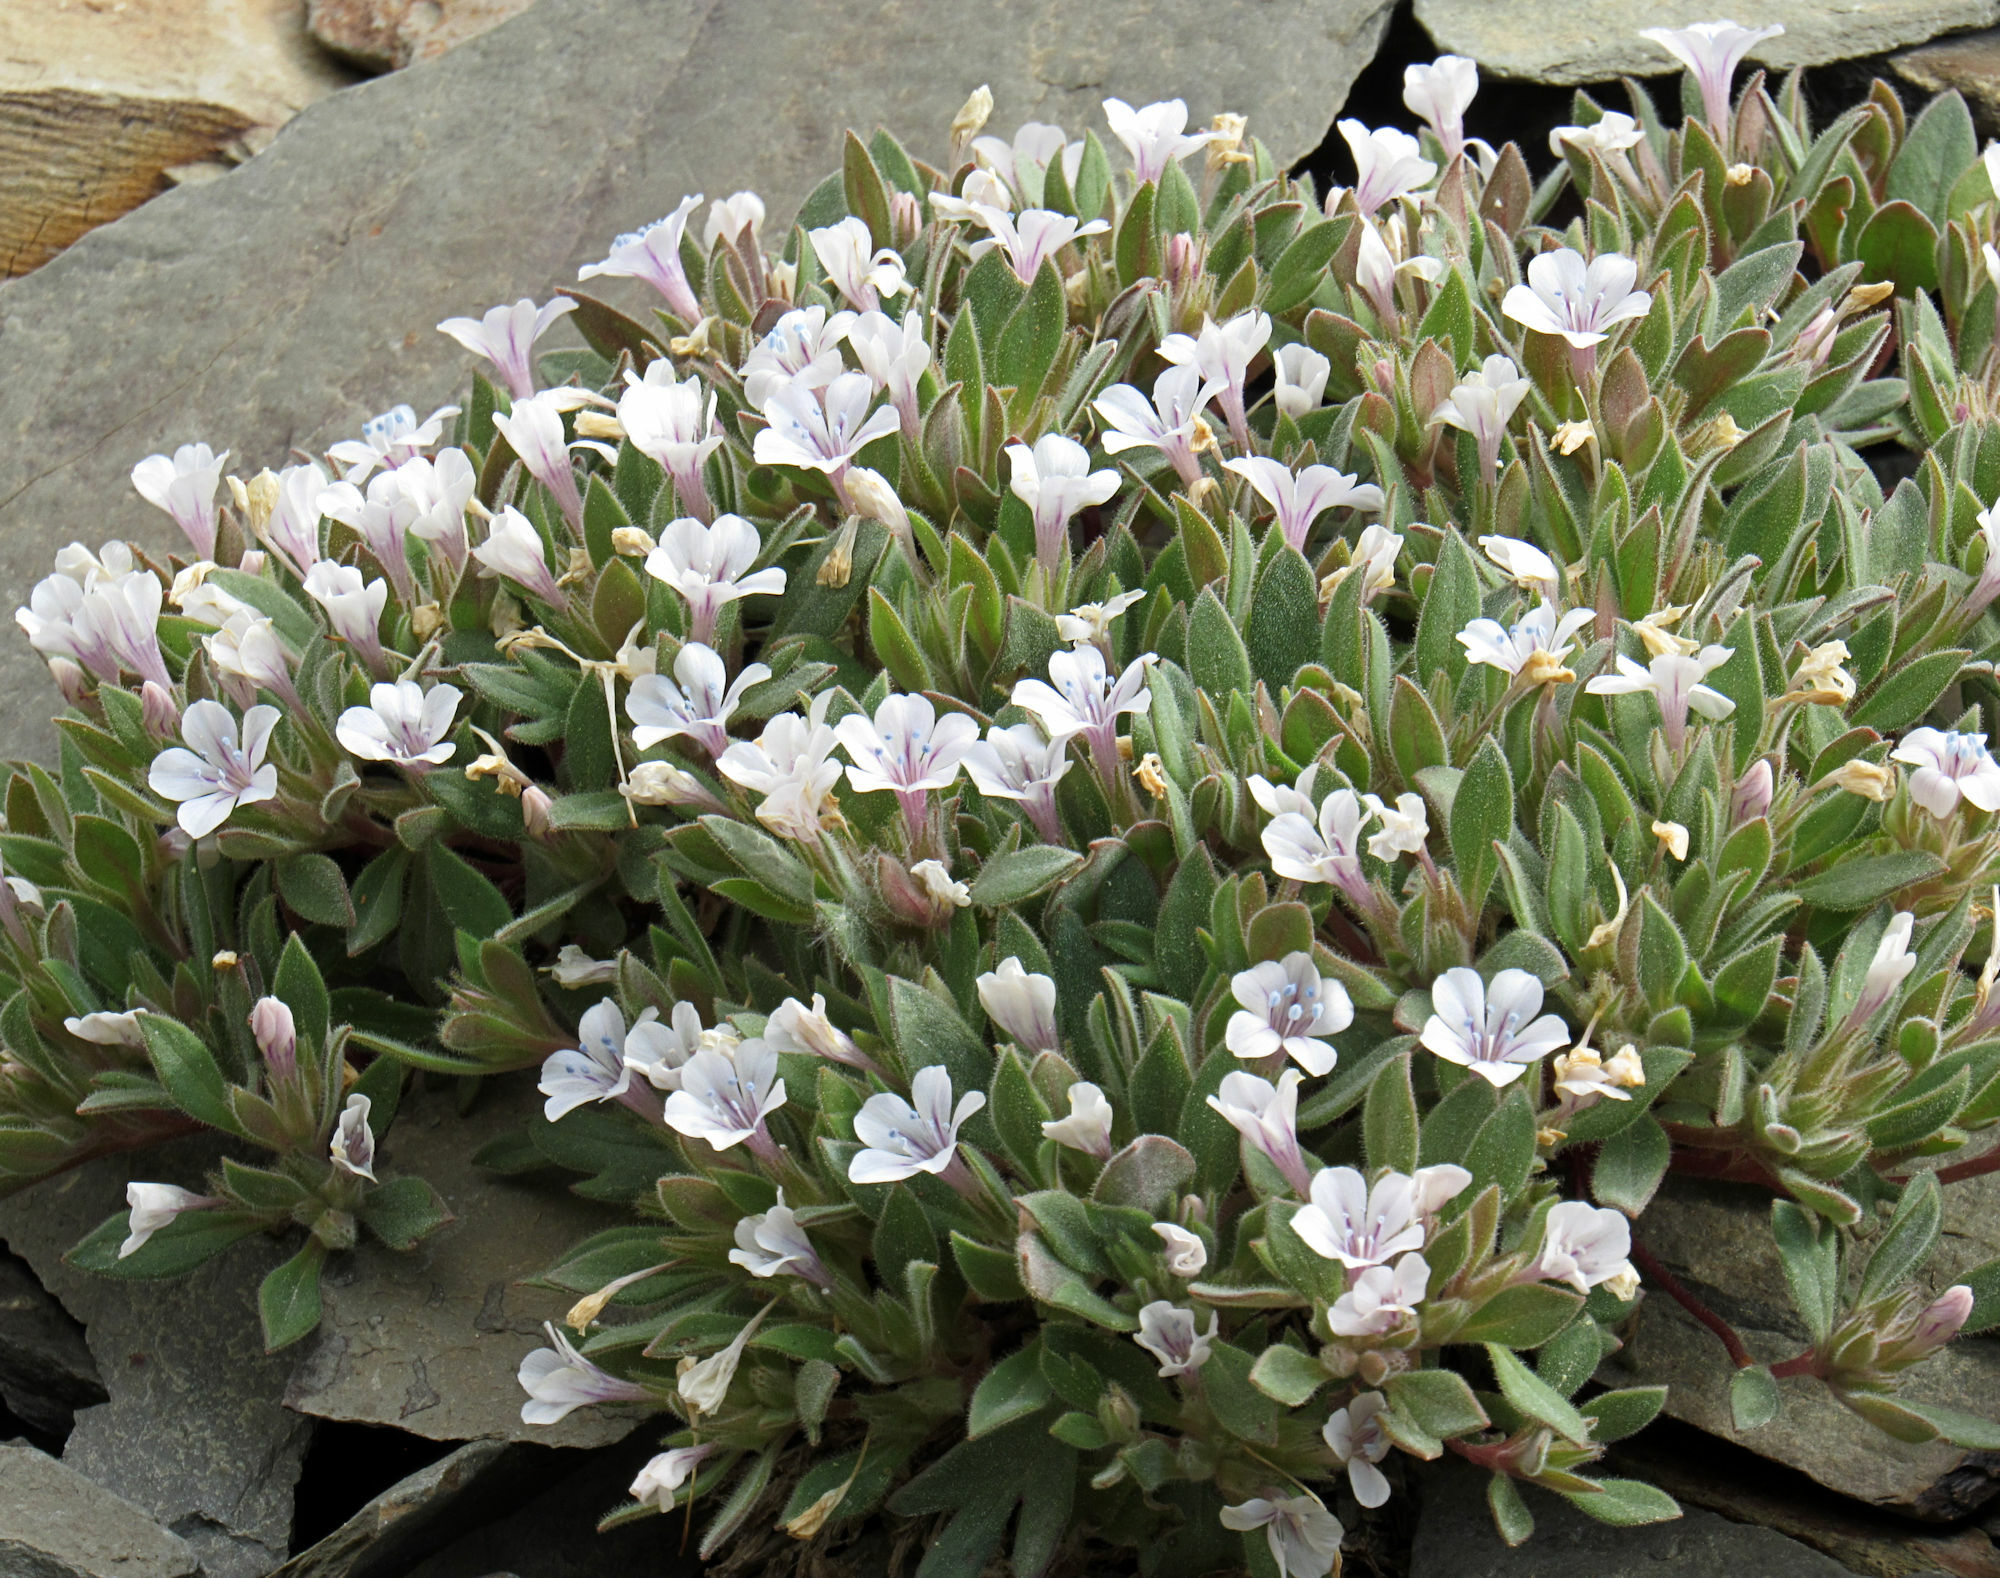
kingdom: Plantae
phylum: Tracheophyta
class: Magnoliopsida
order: Ericales
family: Polemoniaceae
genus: Collomia
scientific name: Collomia debilis
